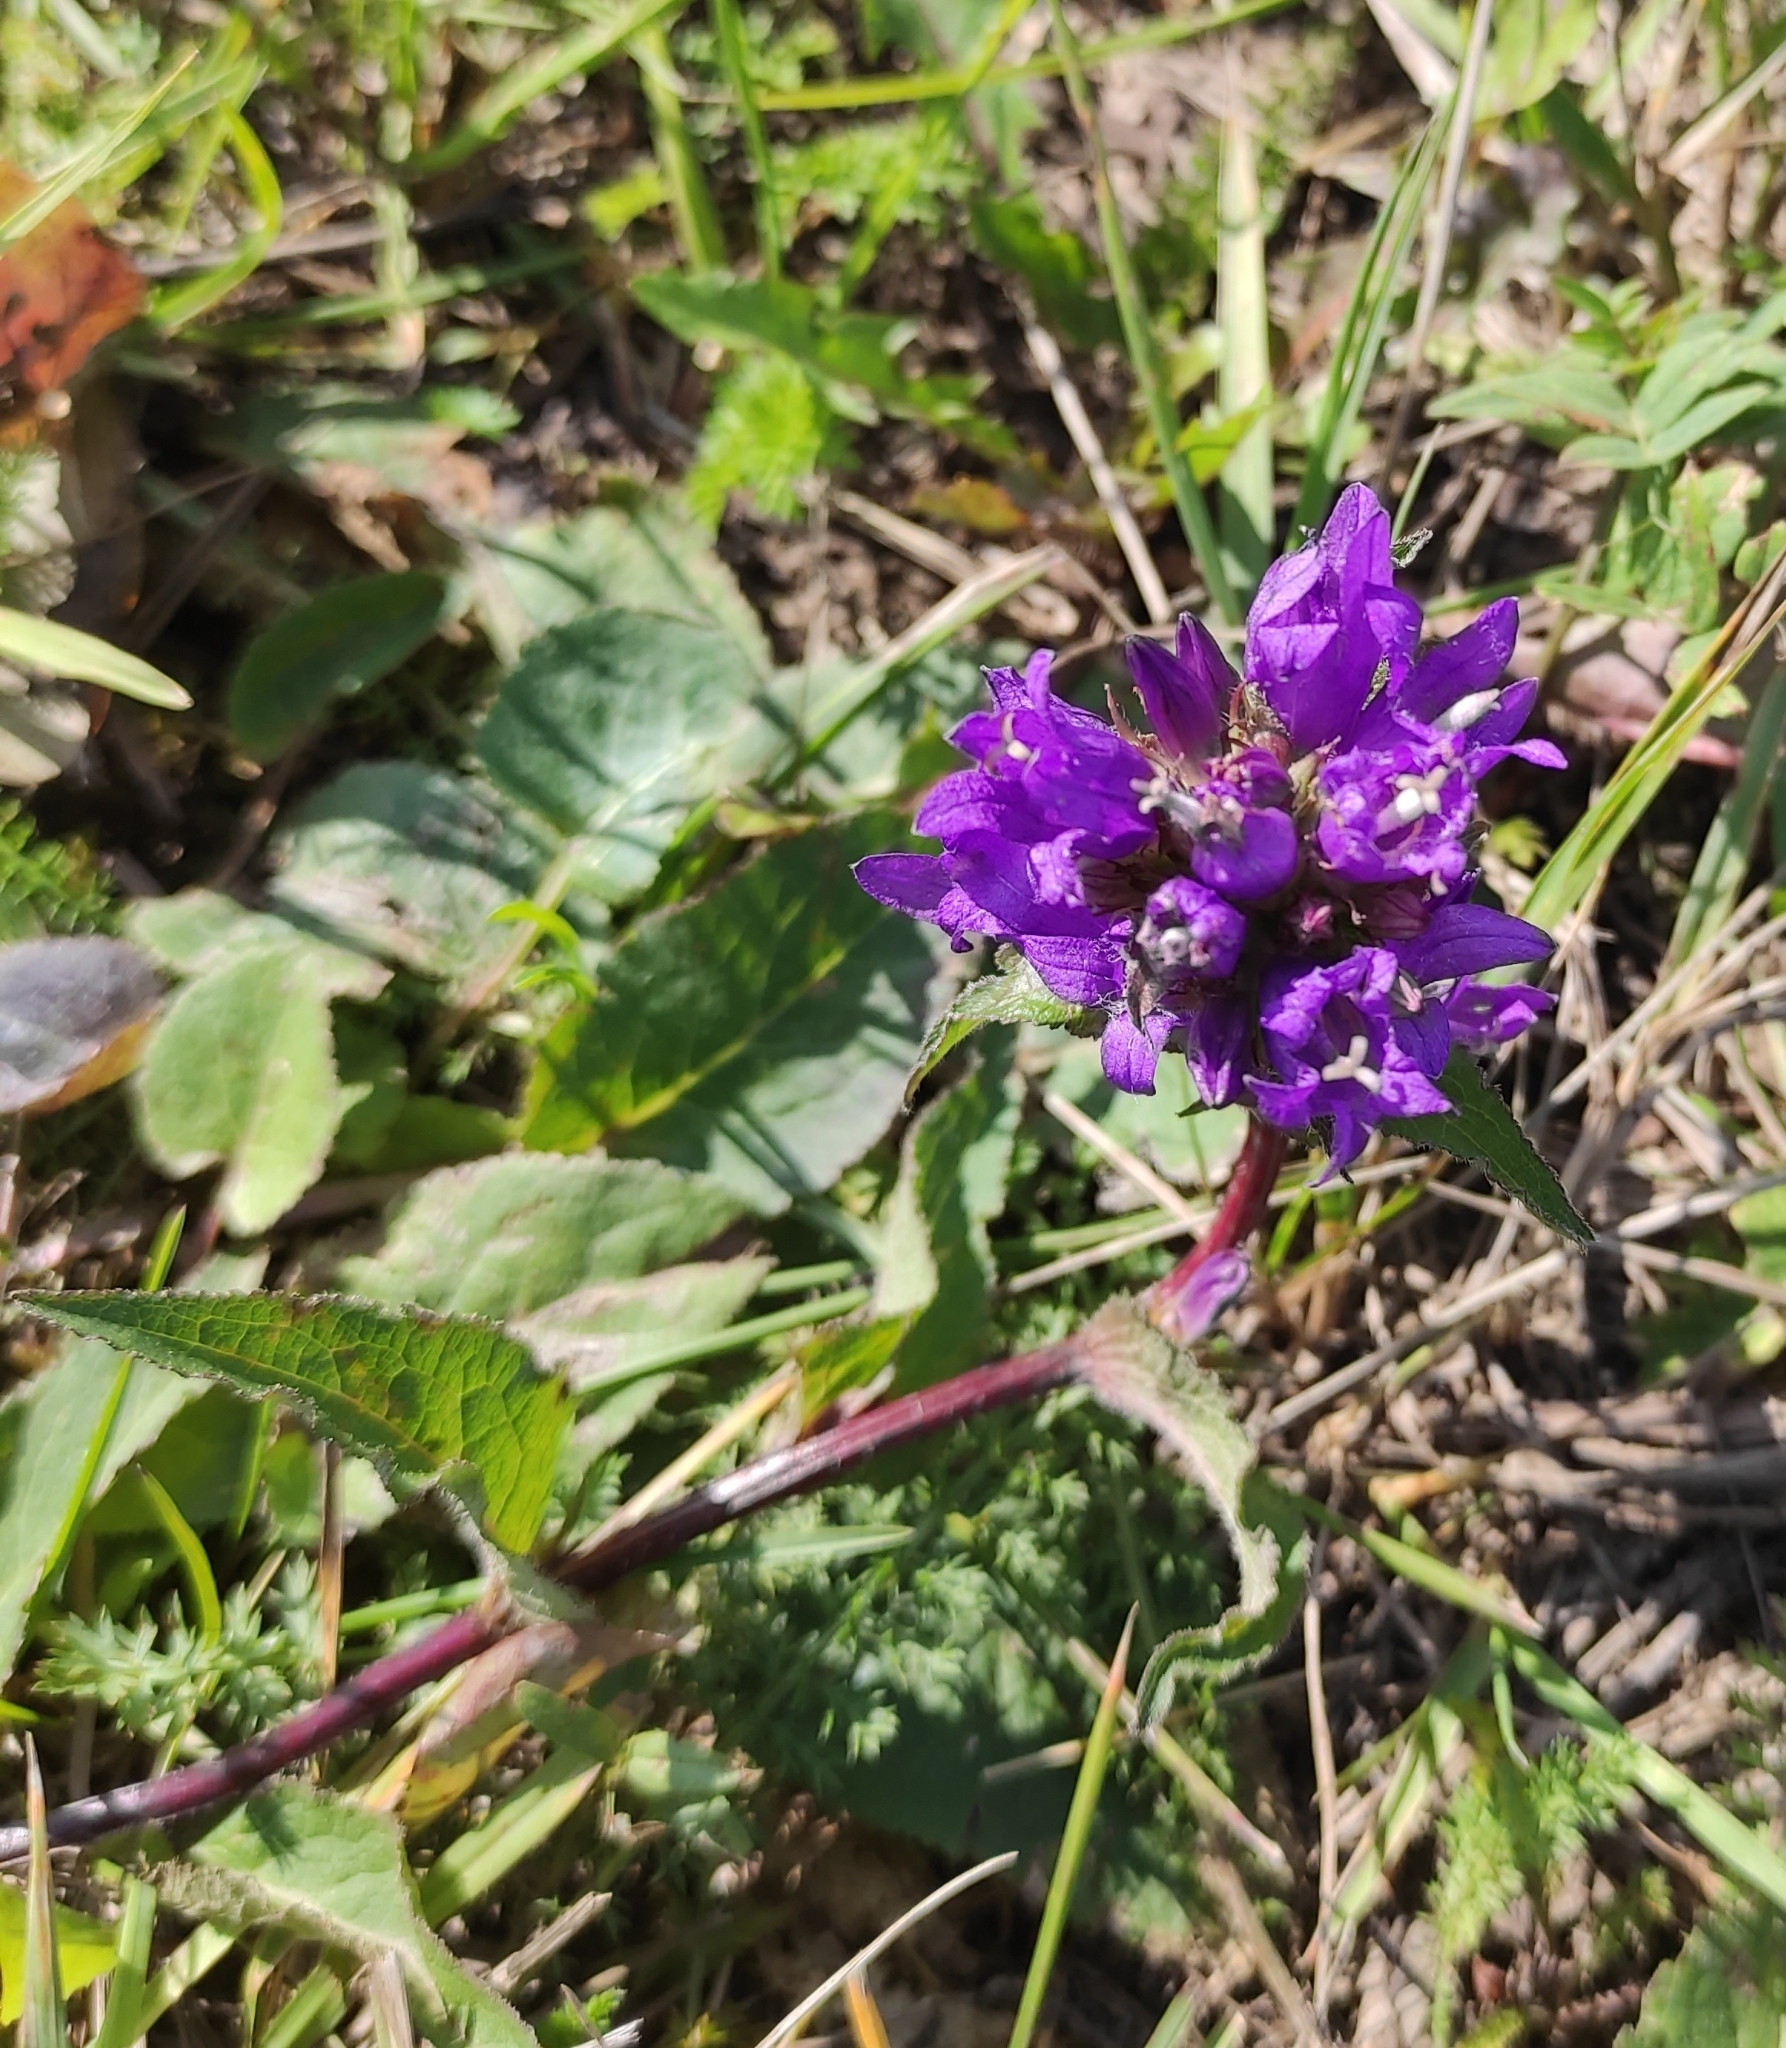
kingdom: Plantae
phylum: Tracheophyta
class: Magnoliopsida
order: Asterales
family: Campanulaceae
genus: Campanula
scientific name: Campanula glomerata
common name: Clustered bellflower
